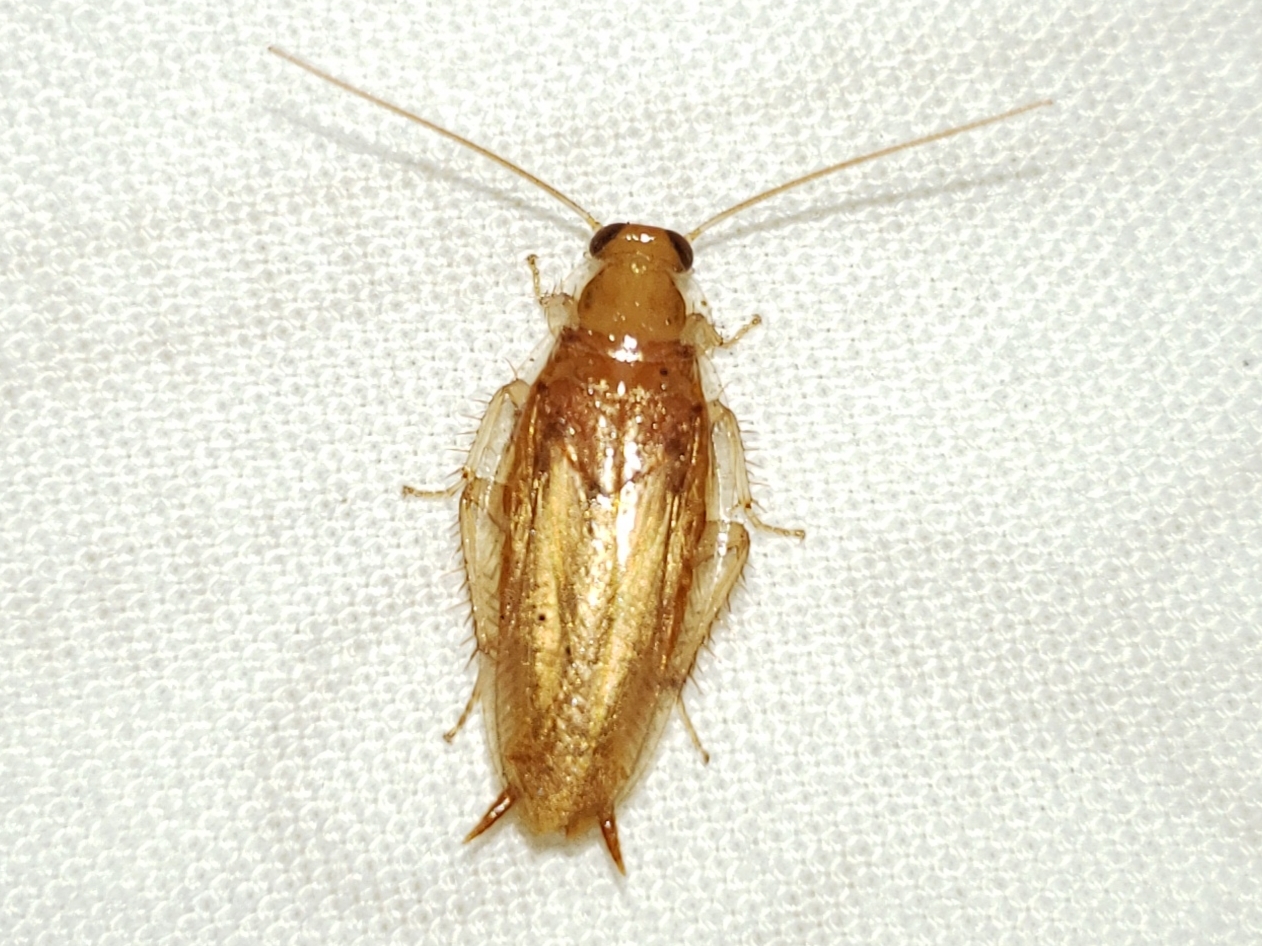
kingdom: Animalia
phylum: Arthropoda
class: Insecta
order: Blattodea
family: Ectobiidae
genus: Chorisoneura
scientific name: Chorisoneura texensis
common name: Small texas cockroach
